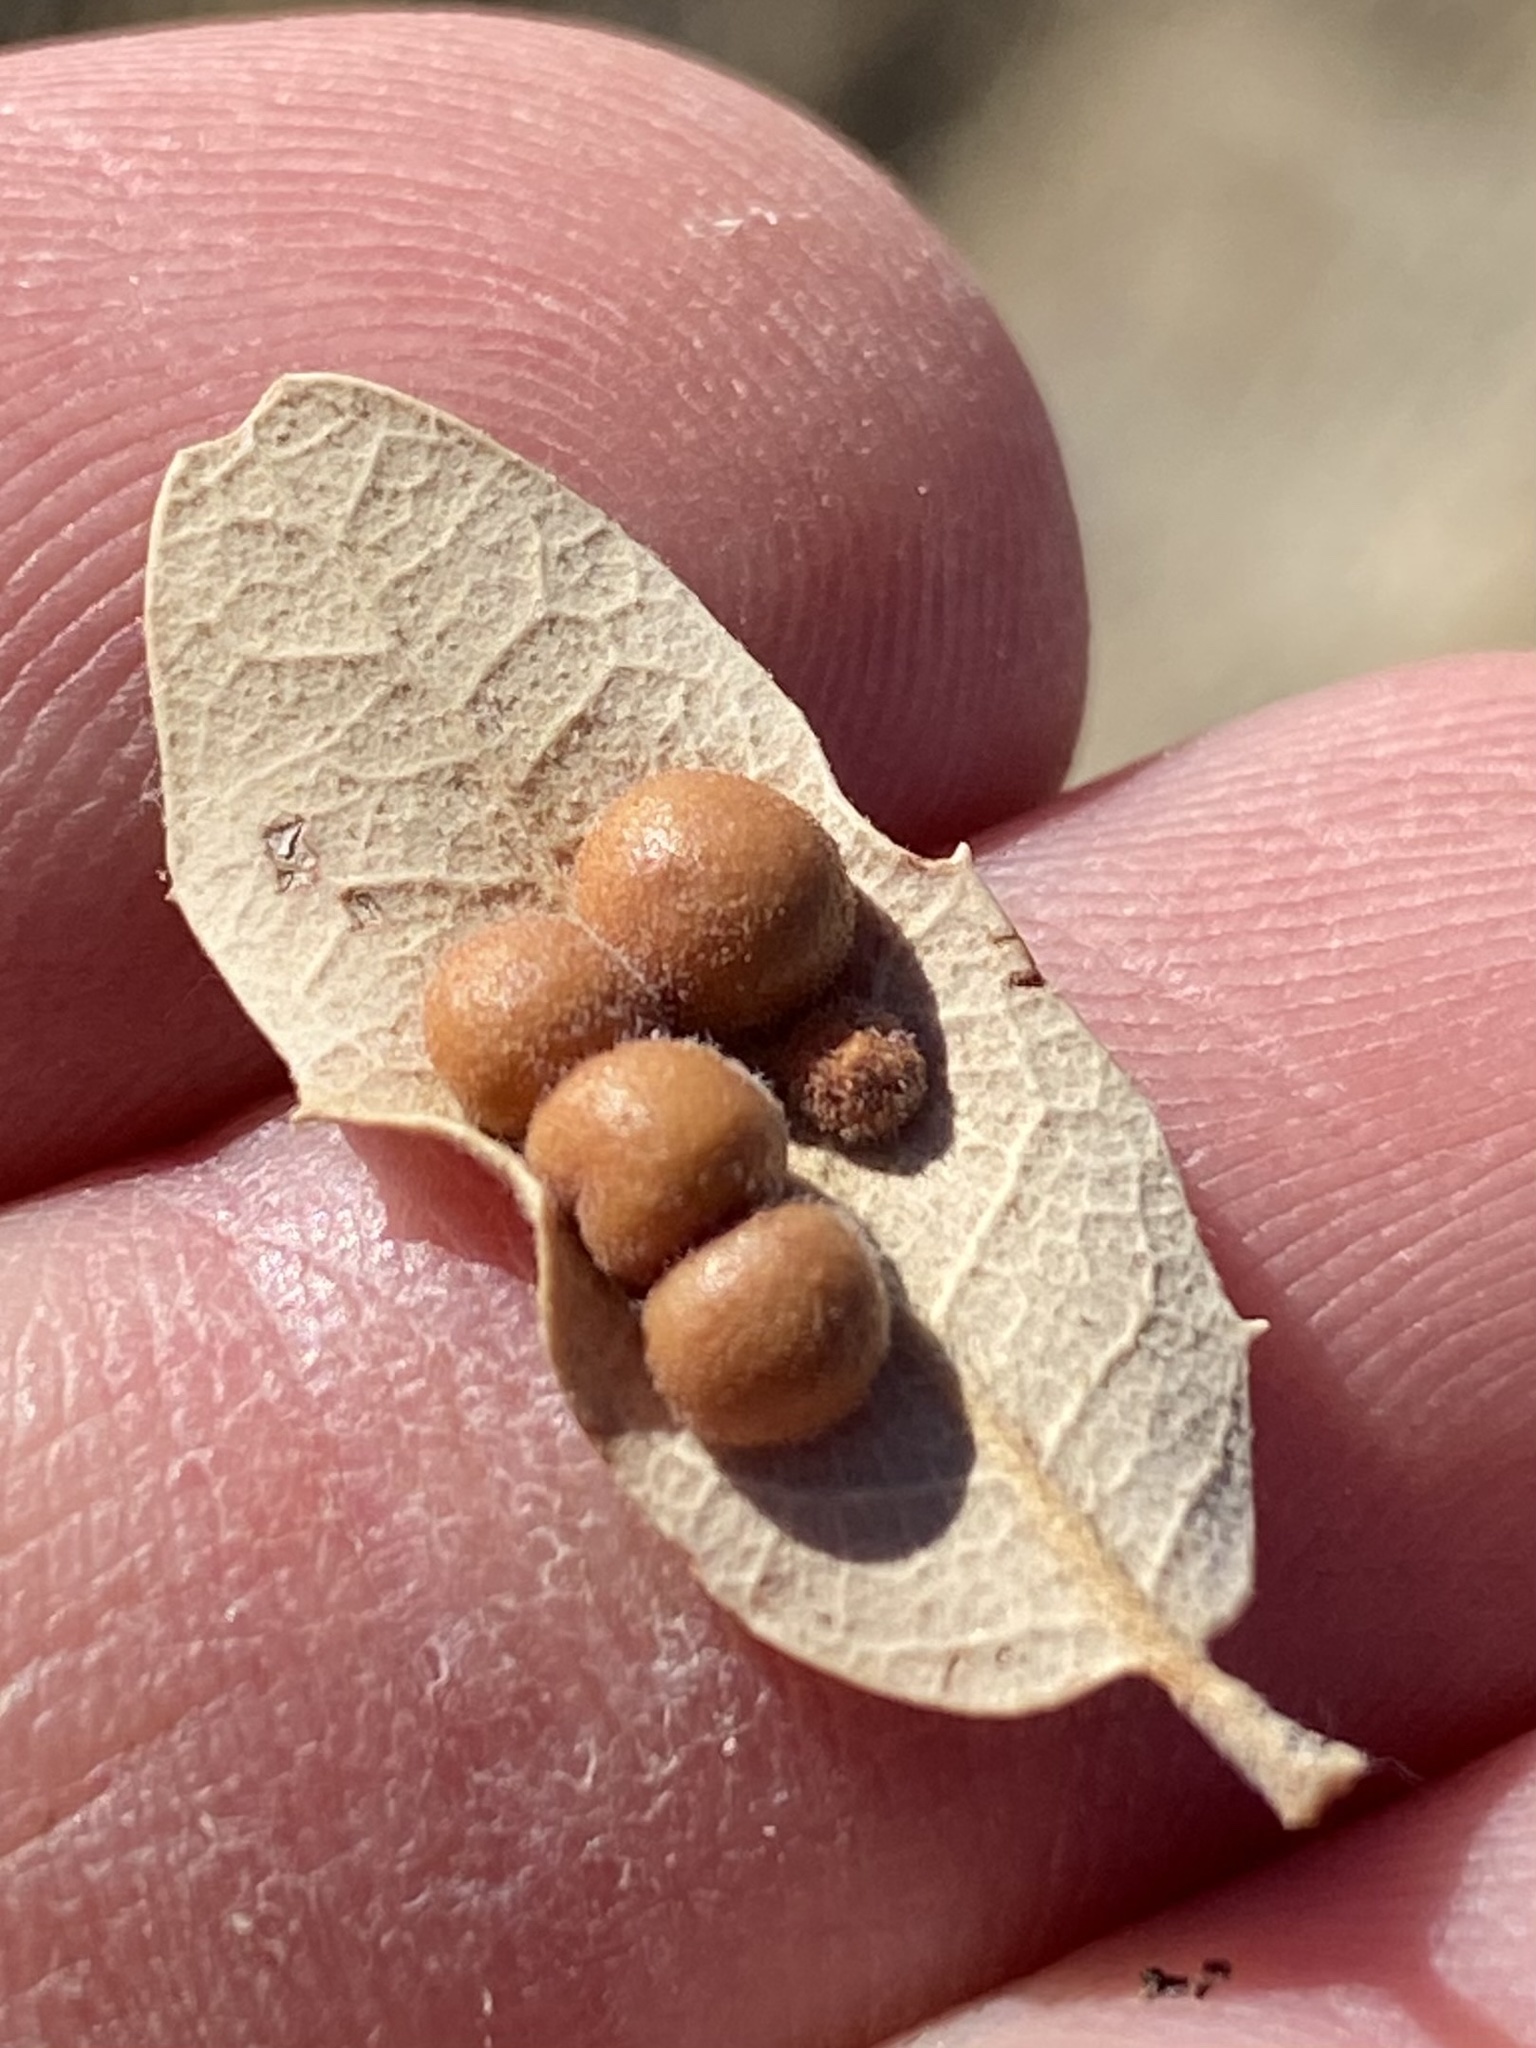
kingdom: Animalia
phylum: Arthropoda
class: Insecta
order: Hymenoptera
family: Cynipidae
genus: Biorhiza
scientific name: Biorhiza
